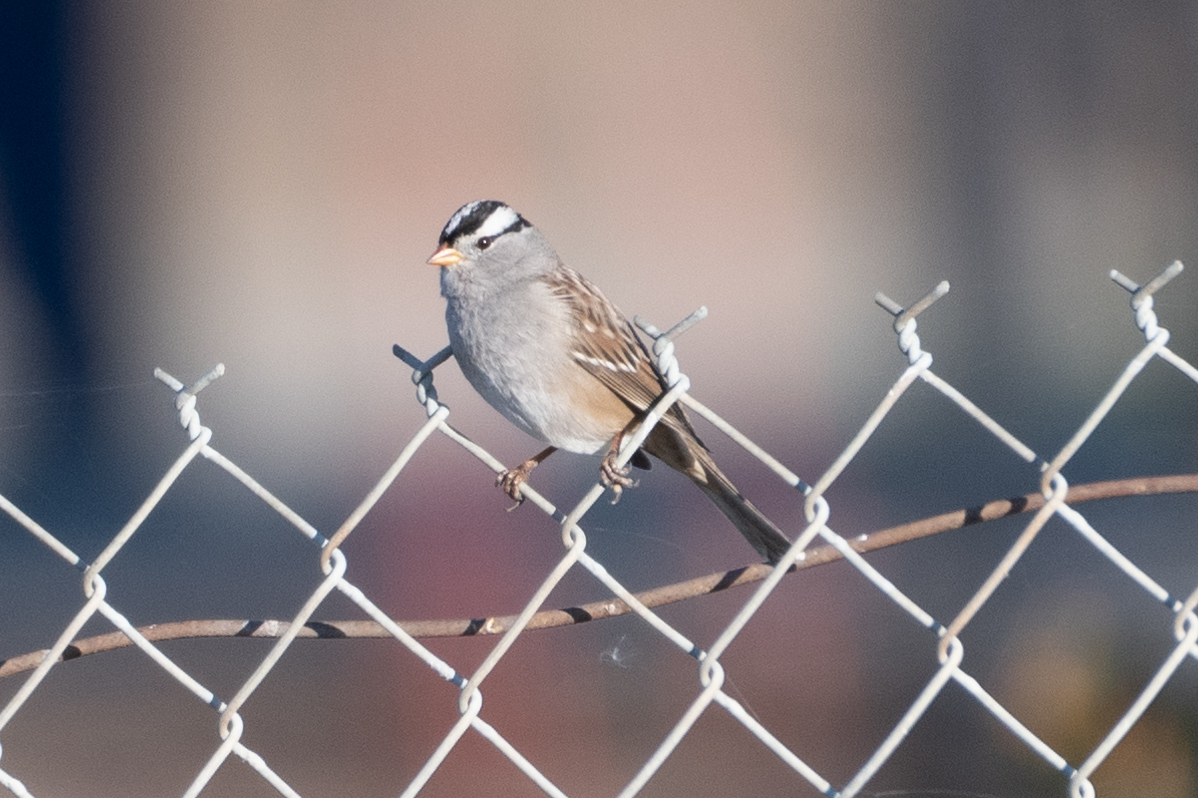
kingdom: Animalia
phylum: Chordata
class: Aves
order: Passeriformes
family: Passerellidae
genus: Zonotrichia
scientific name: Zonotrichia leucophrys
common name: White-crowned sparrow
